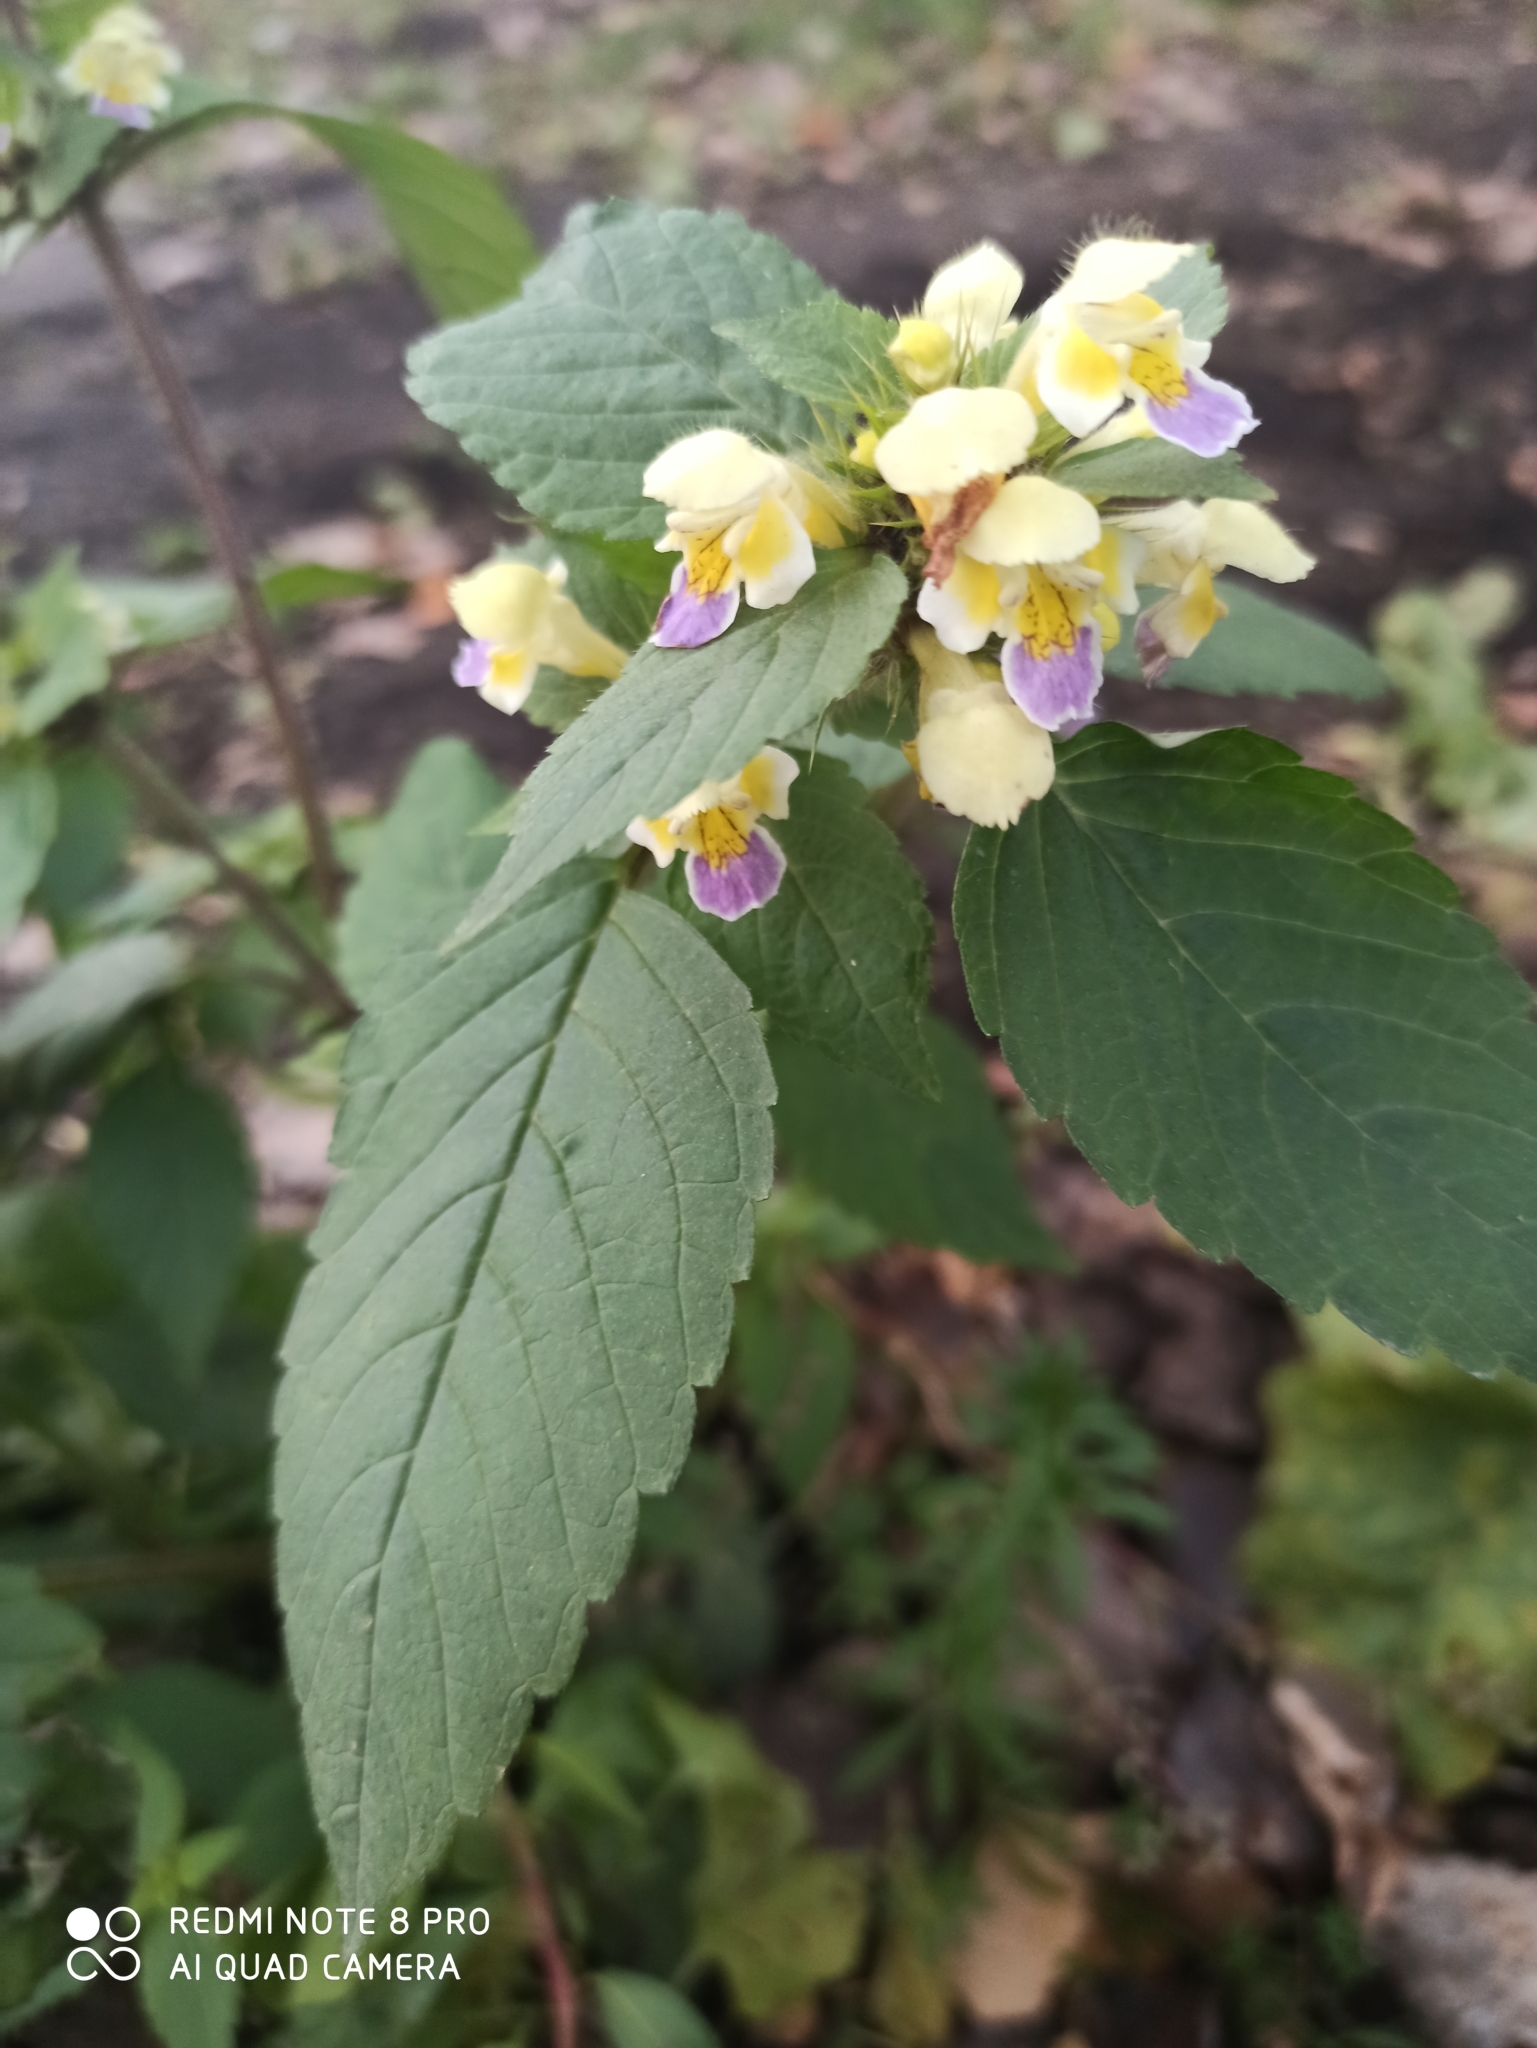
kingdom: Plantae
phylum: Tracheophyta
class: Magnoliopsida
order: Lamiales
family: Lamiaceae
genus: Galeopsis
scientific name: Galeopsis speciosa
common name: Large-flowered hemp-nettle
